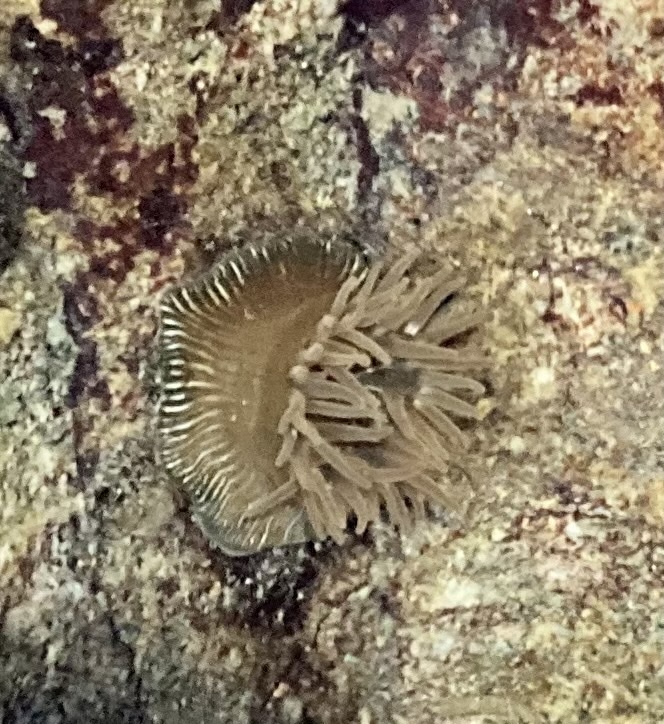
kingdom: Animalia
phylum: Cnidaria
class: Anthozoa
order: Actiniaria
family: Actiniidae
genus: Epiactis
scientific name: Epiactis prolifera
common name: Brooding anemone
